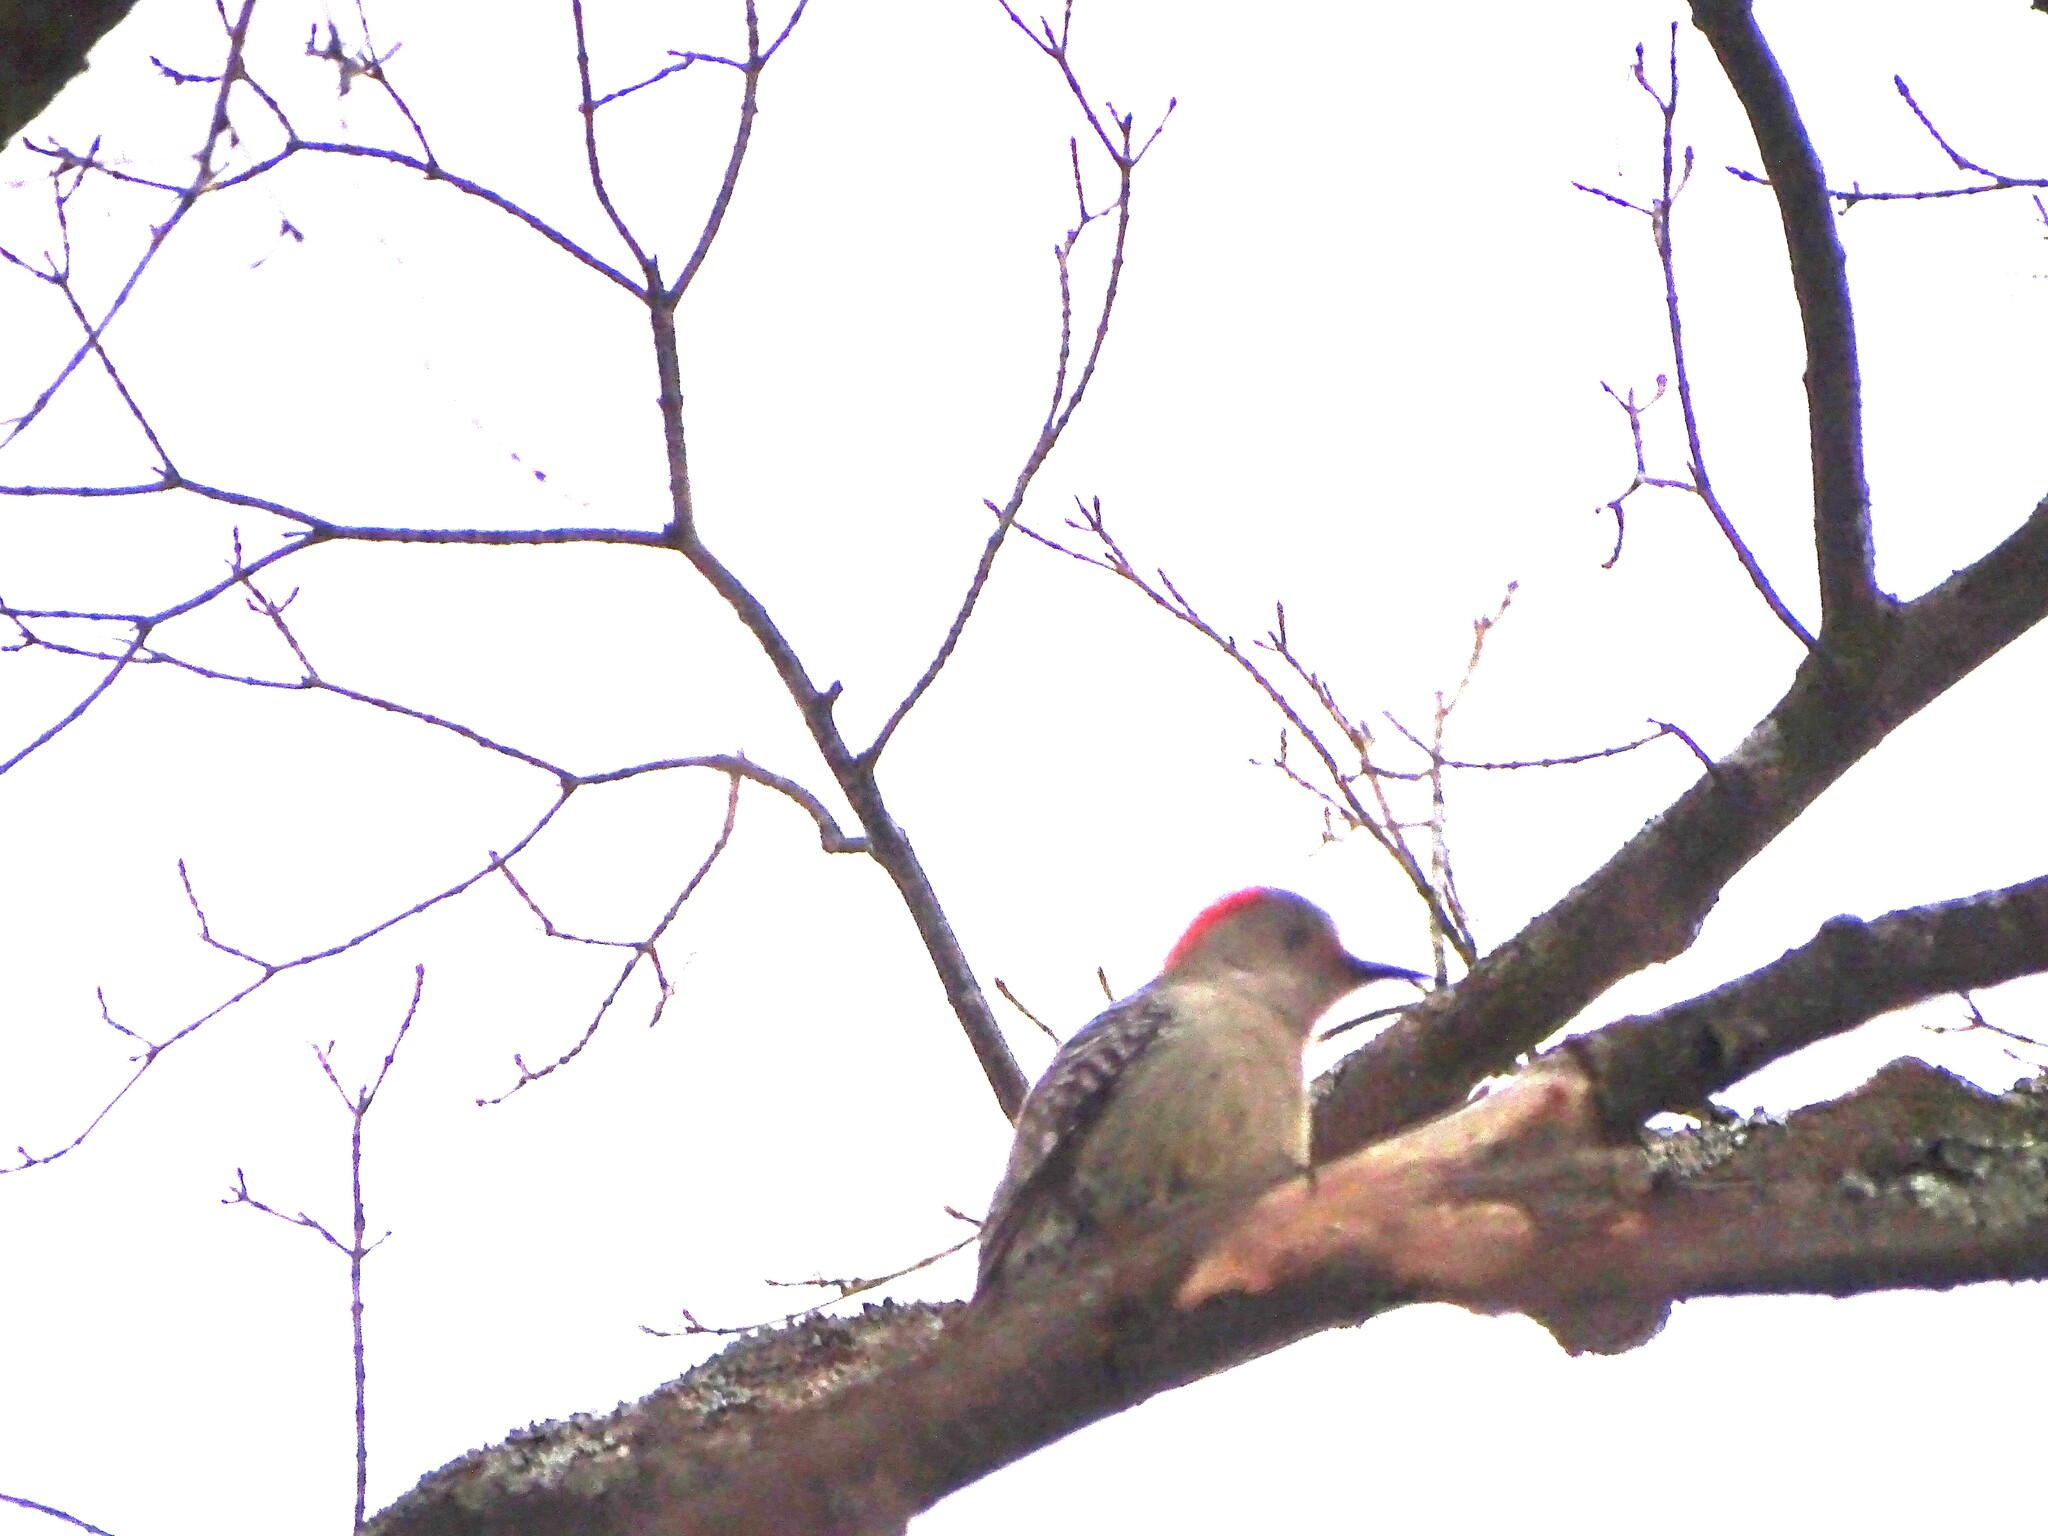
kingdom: Animalia
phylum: Chordata
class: Aves
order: Piciformes
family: Picidae
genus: Melanerpes
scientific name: Melanerpes carolinus
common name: Red-bellied woodpecker
